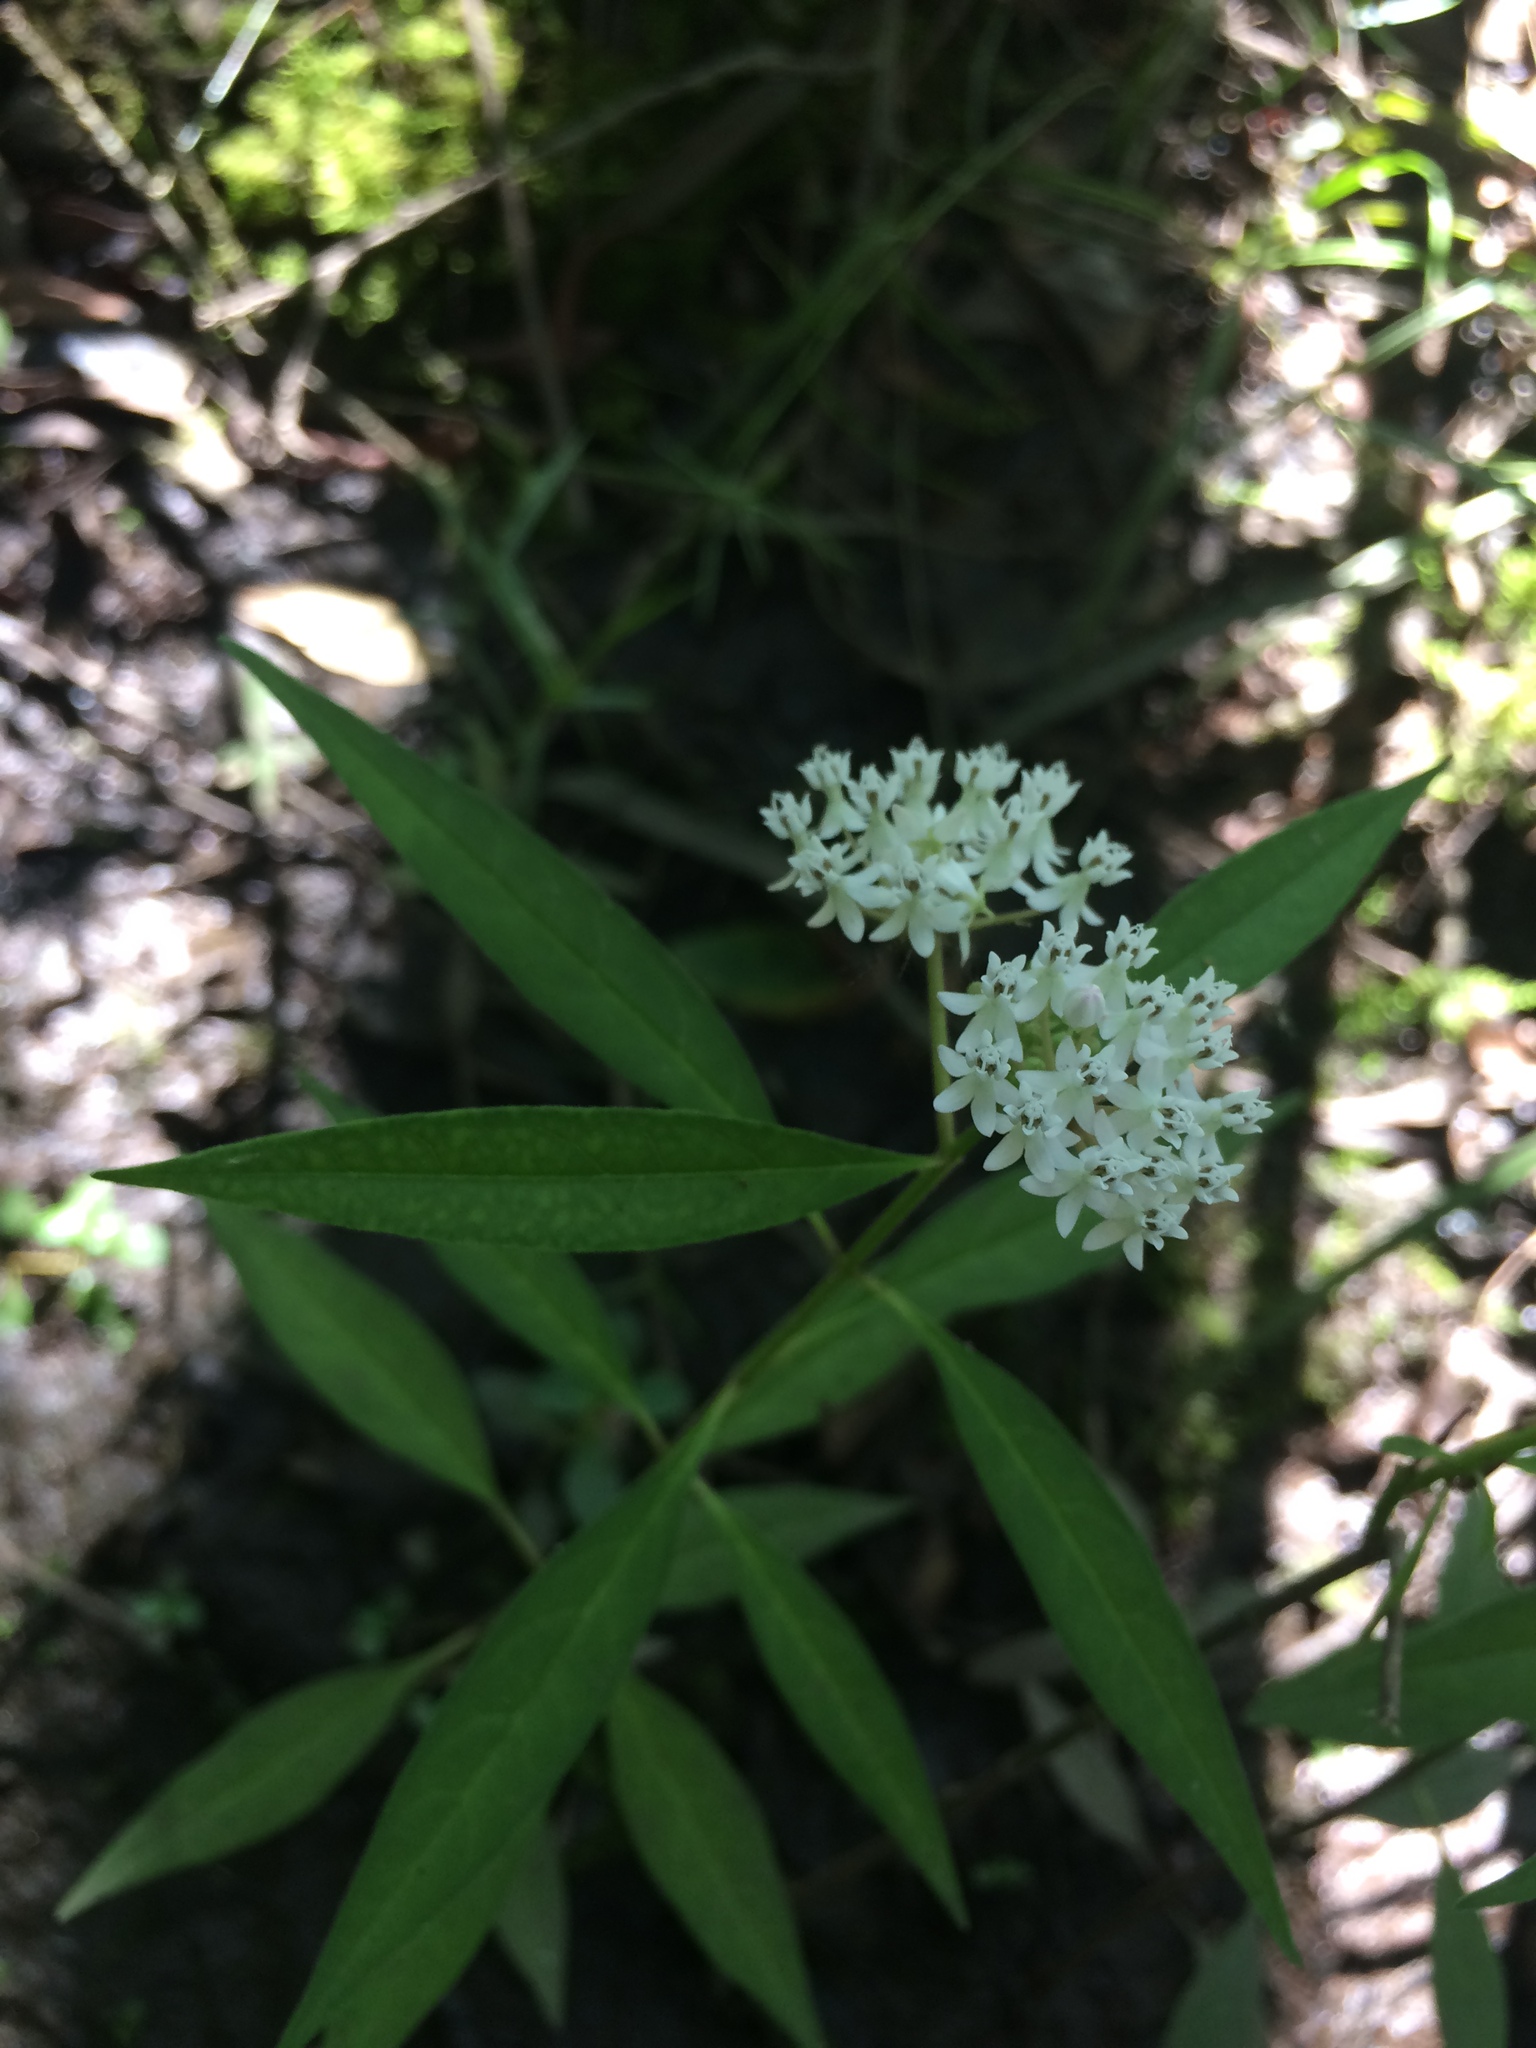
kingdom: Plantae
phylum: Tracheophyta
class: Magnoliopsida
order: Gentianales
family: Apocynaceae
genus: Asclepias
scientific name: Asclepias perennis
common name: Smooth-seed milkweed
